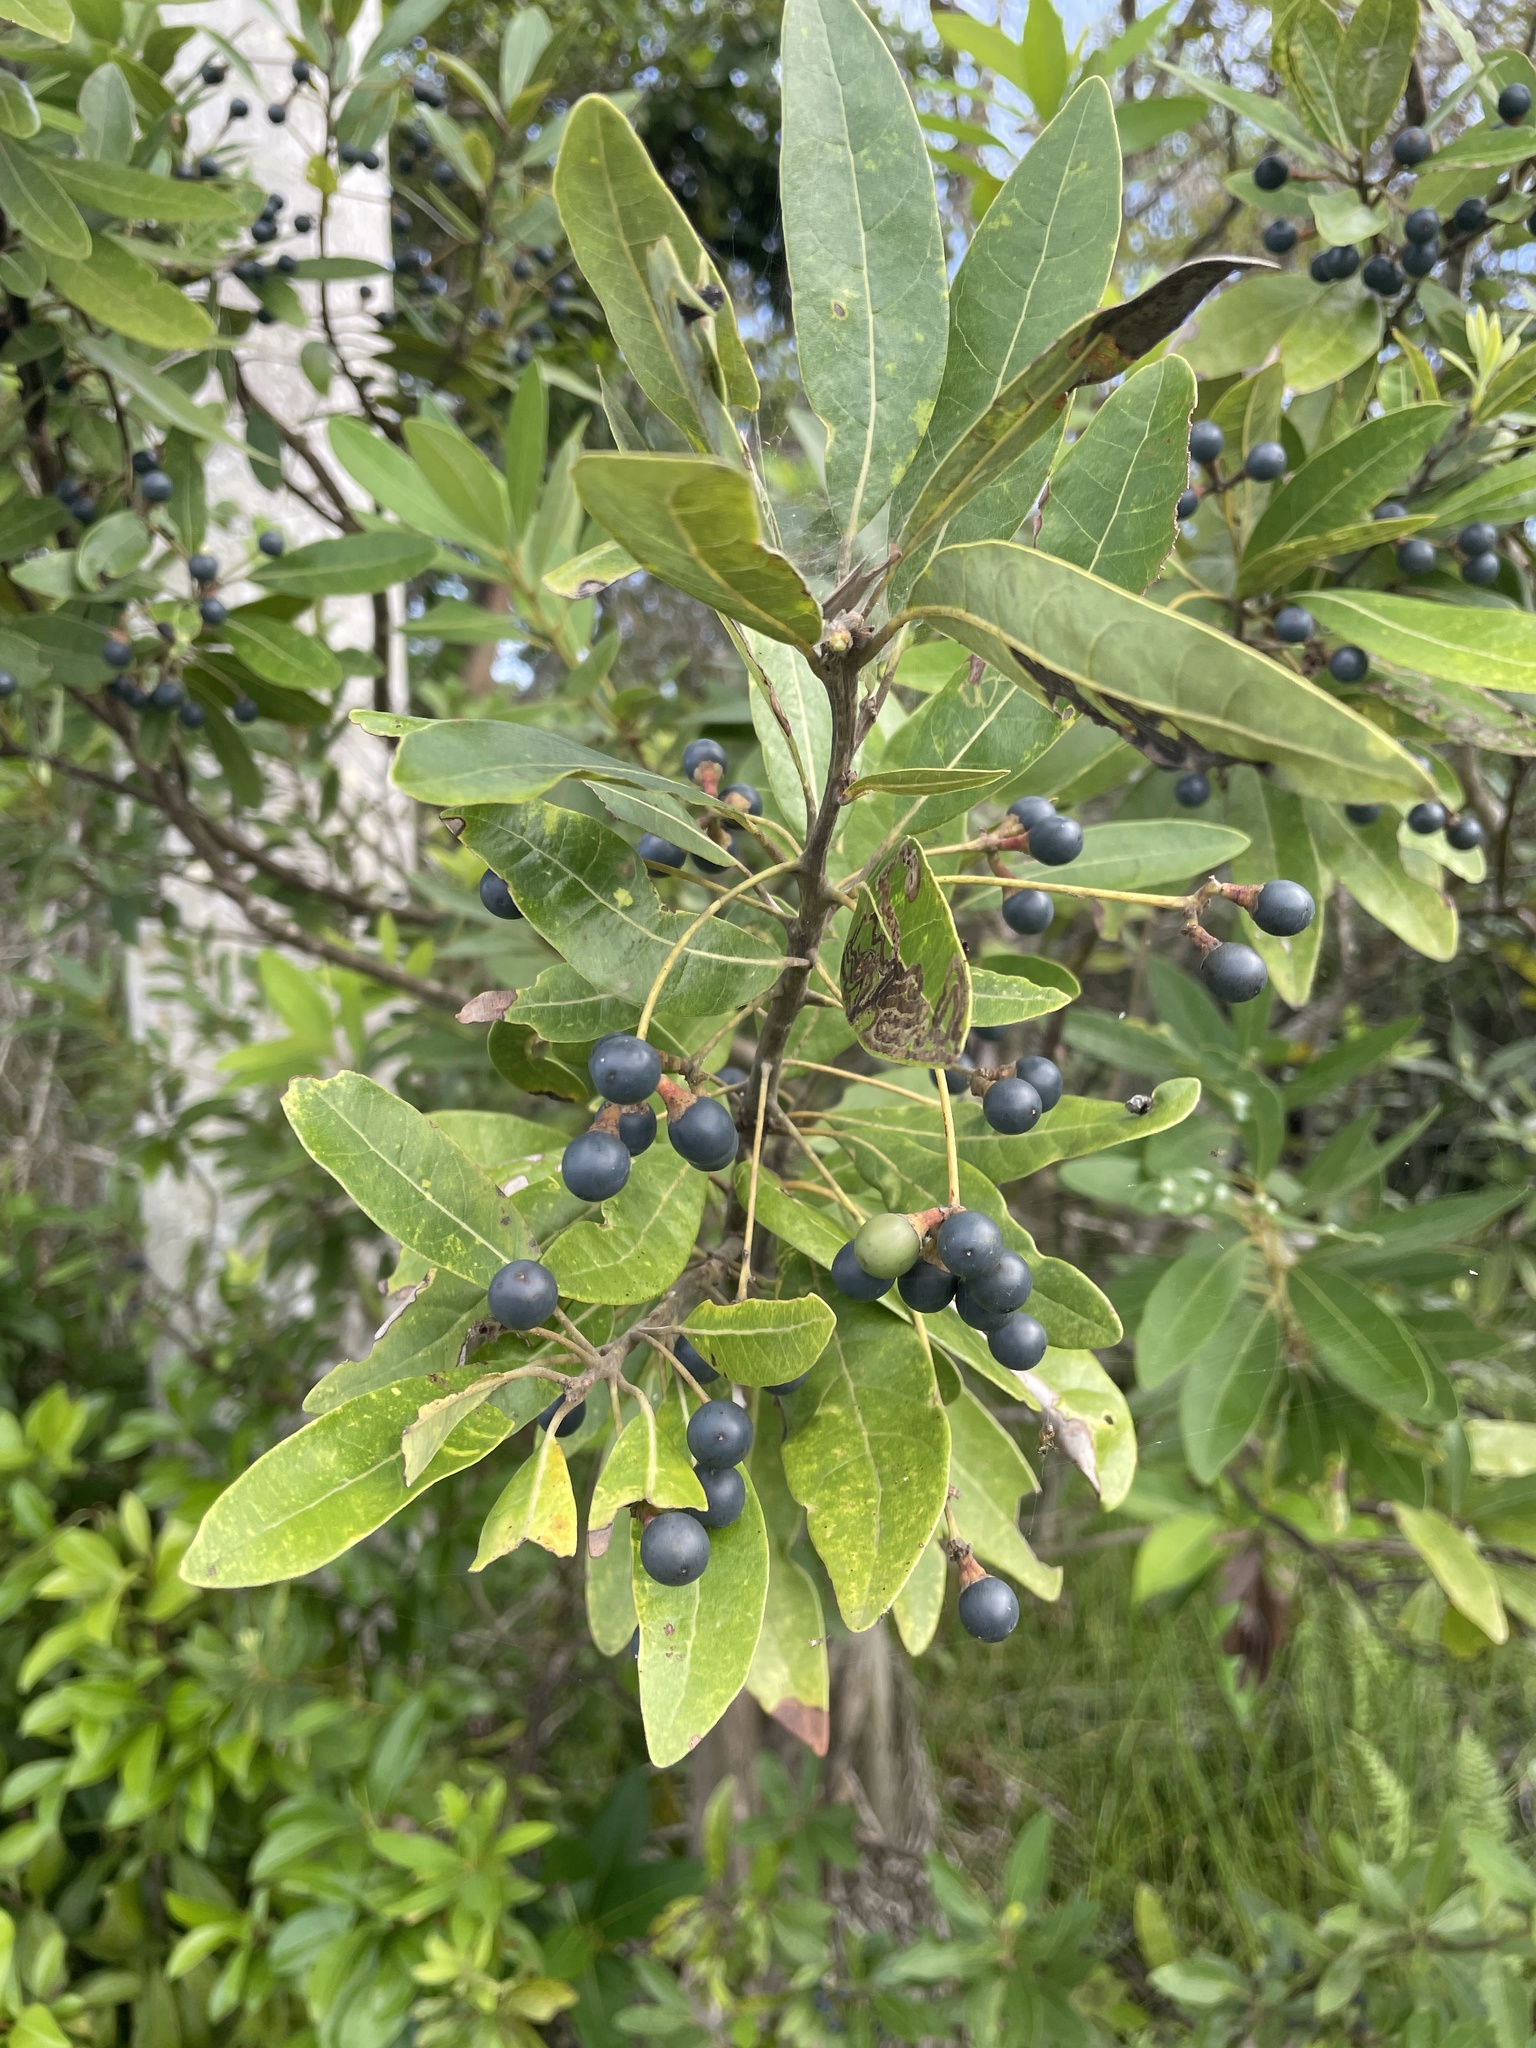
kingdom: Plantae
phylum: Tracheophyta
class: Magnoliopsida
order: Laurales
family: Lauraceae
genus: Persea
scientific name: Persea palustris
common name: Swampbay
